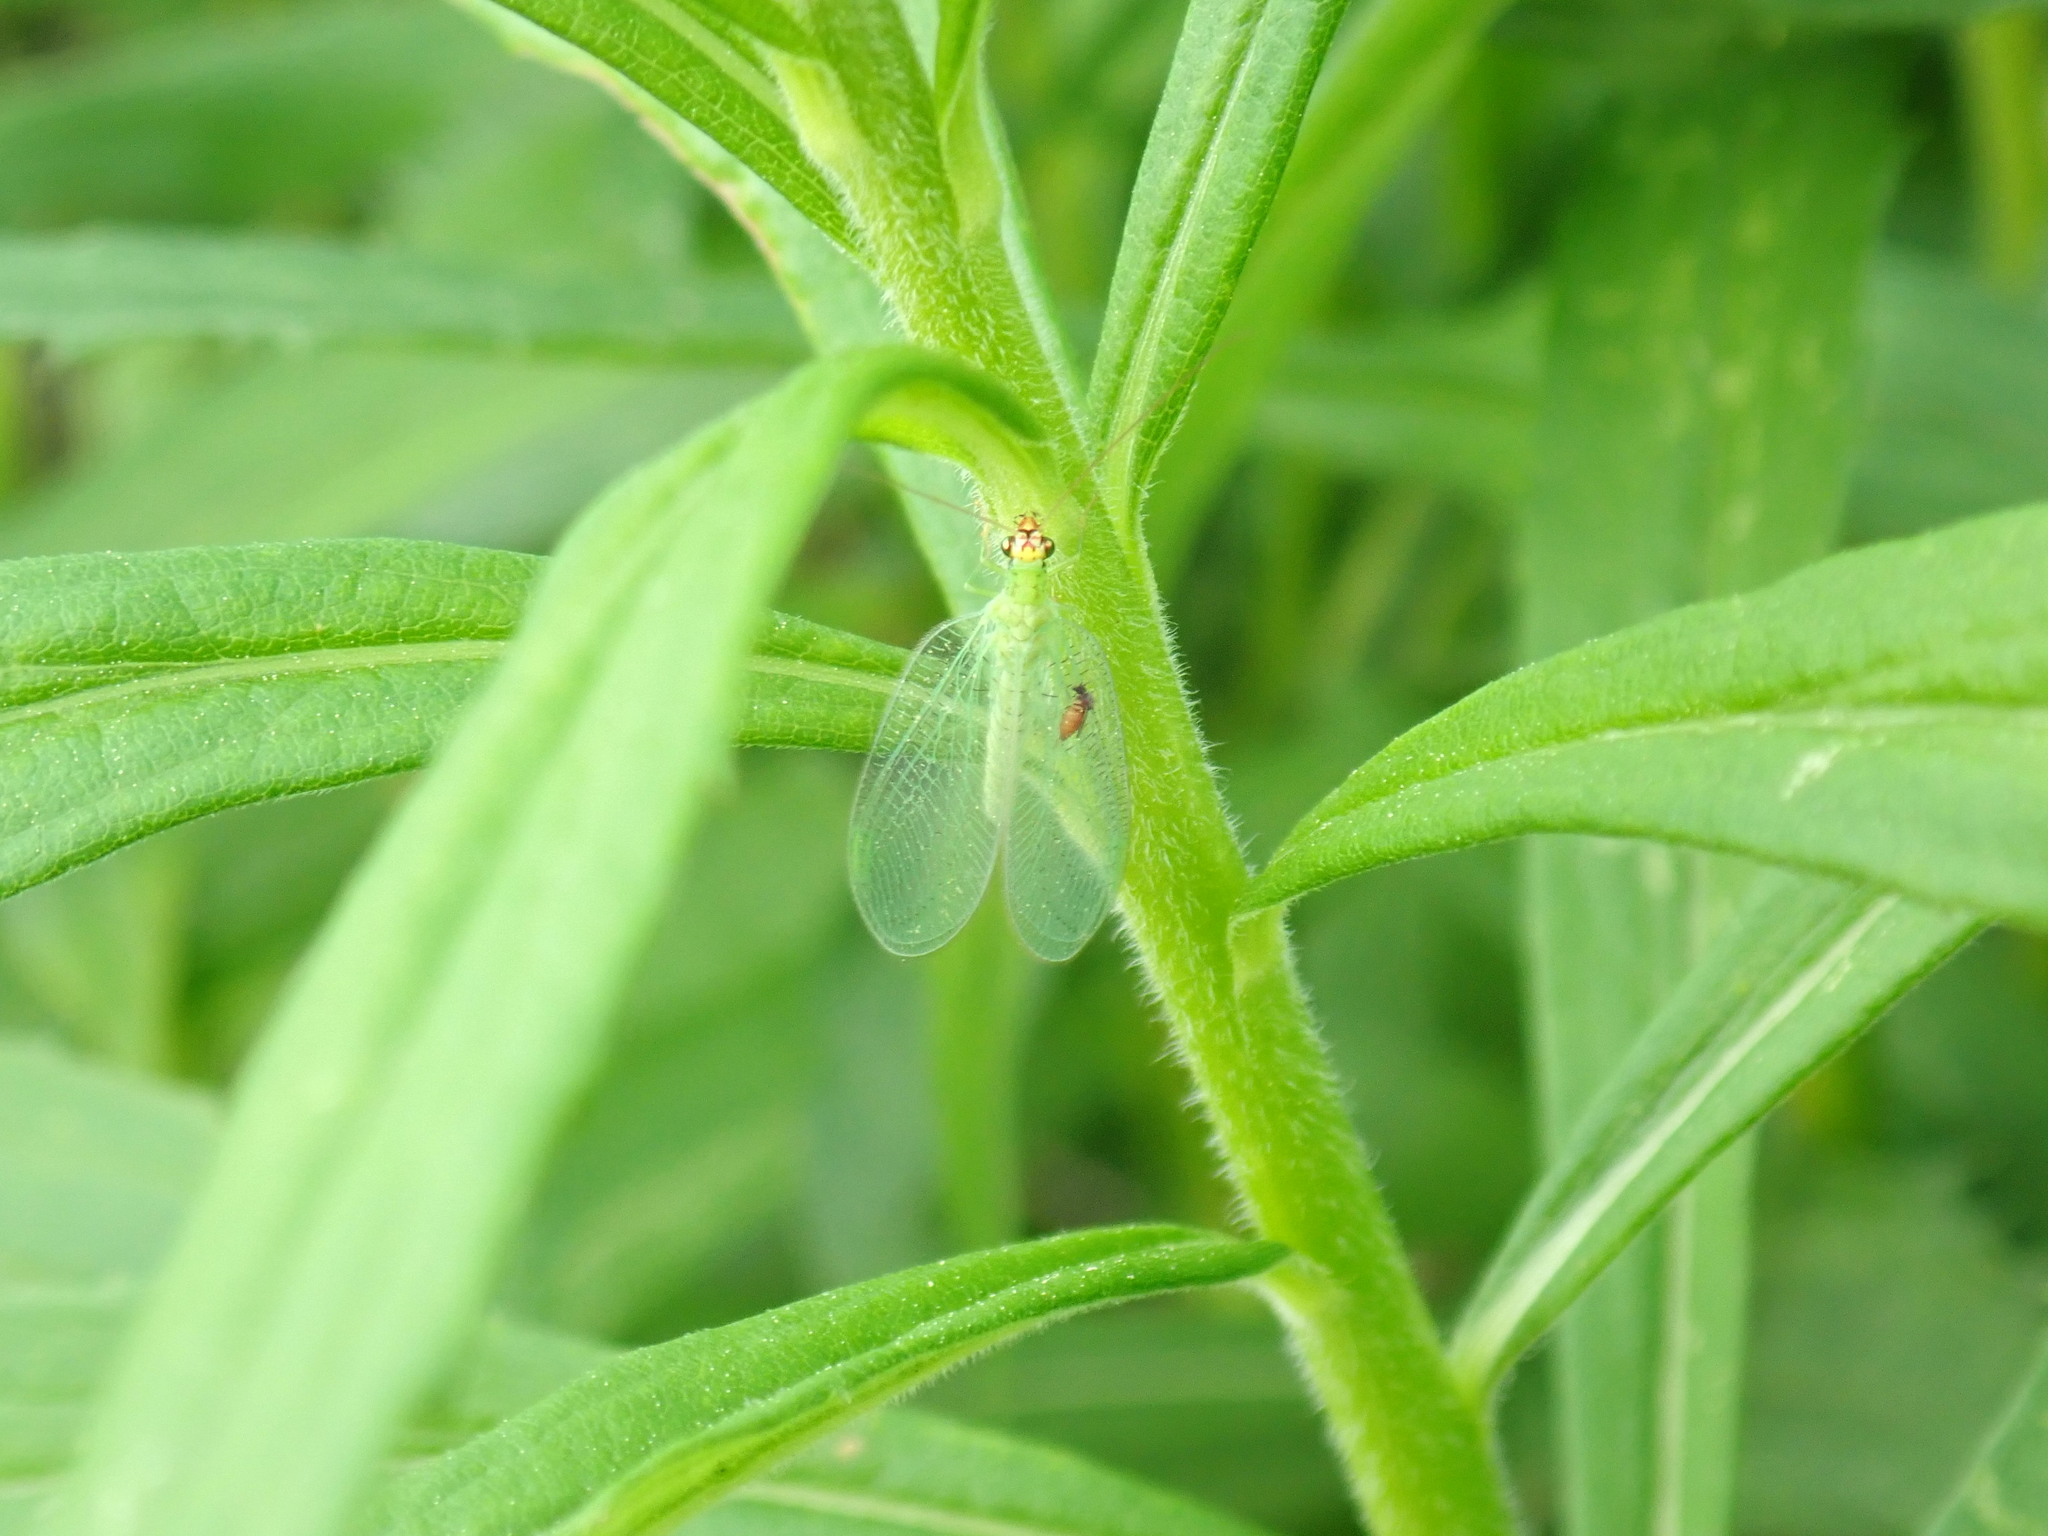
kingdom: Animalia
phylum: Arthropoda
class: Insecta
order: Neuroptera
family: Chrysopidae
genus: Chrysopa
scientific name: Chrysopa oculata
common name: Golden-eyed lacewing
